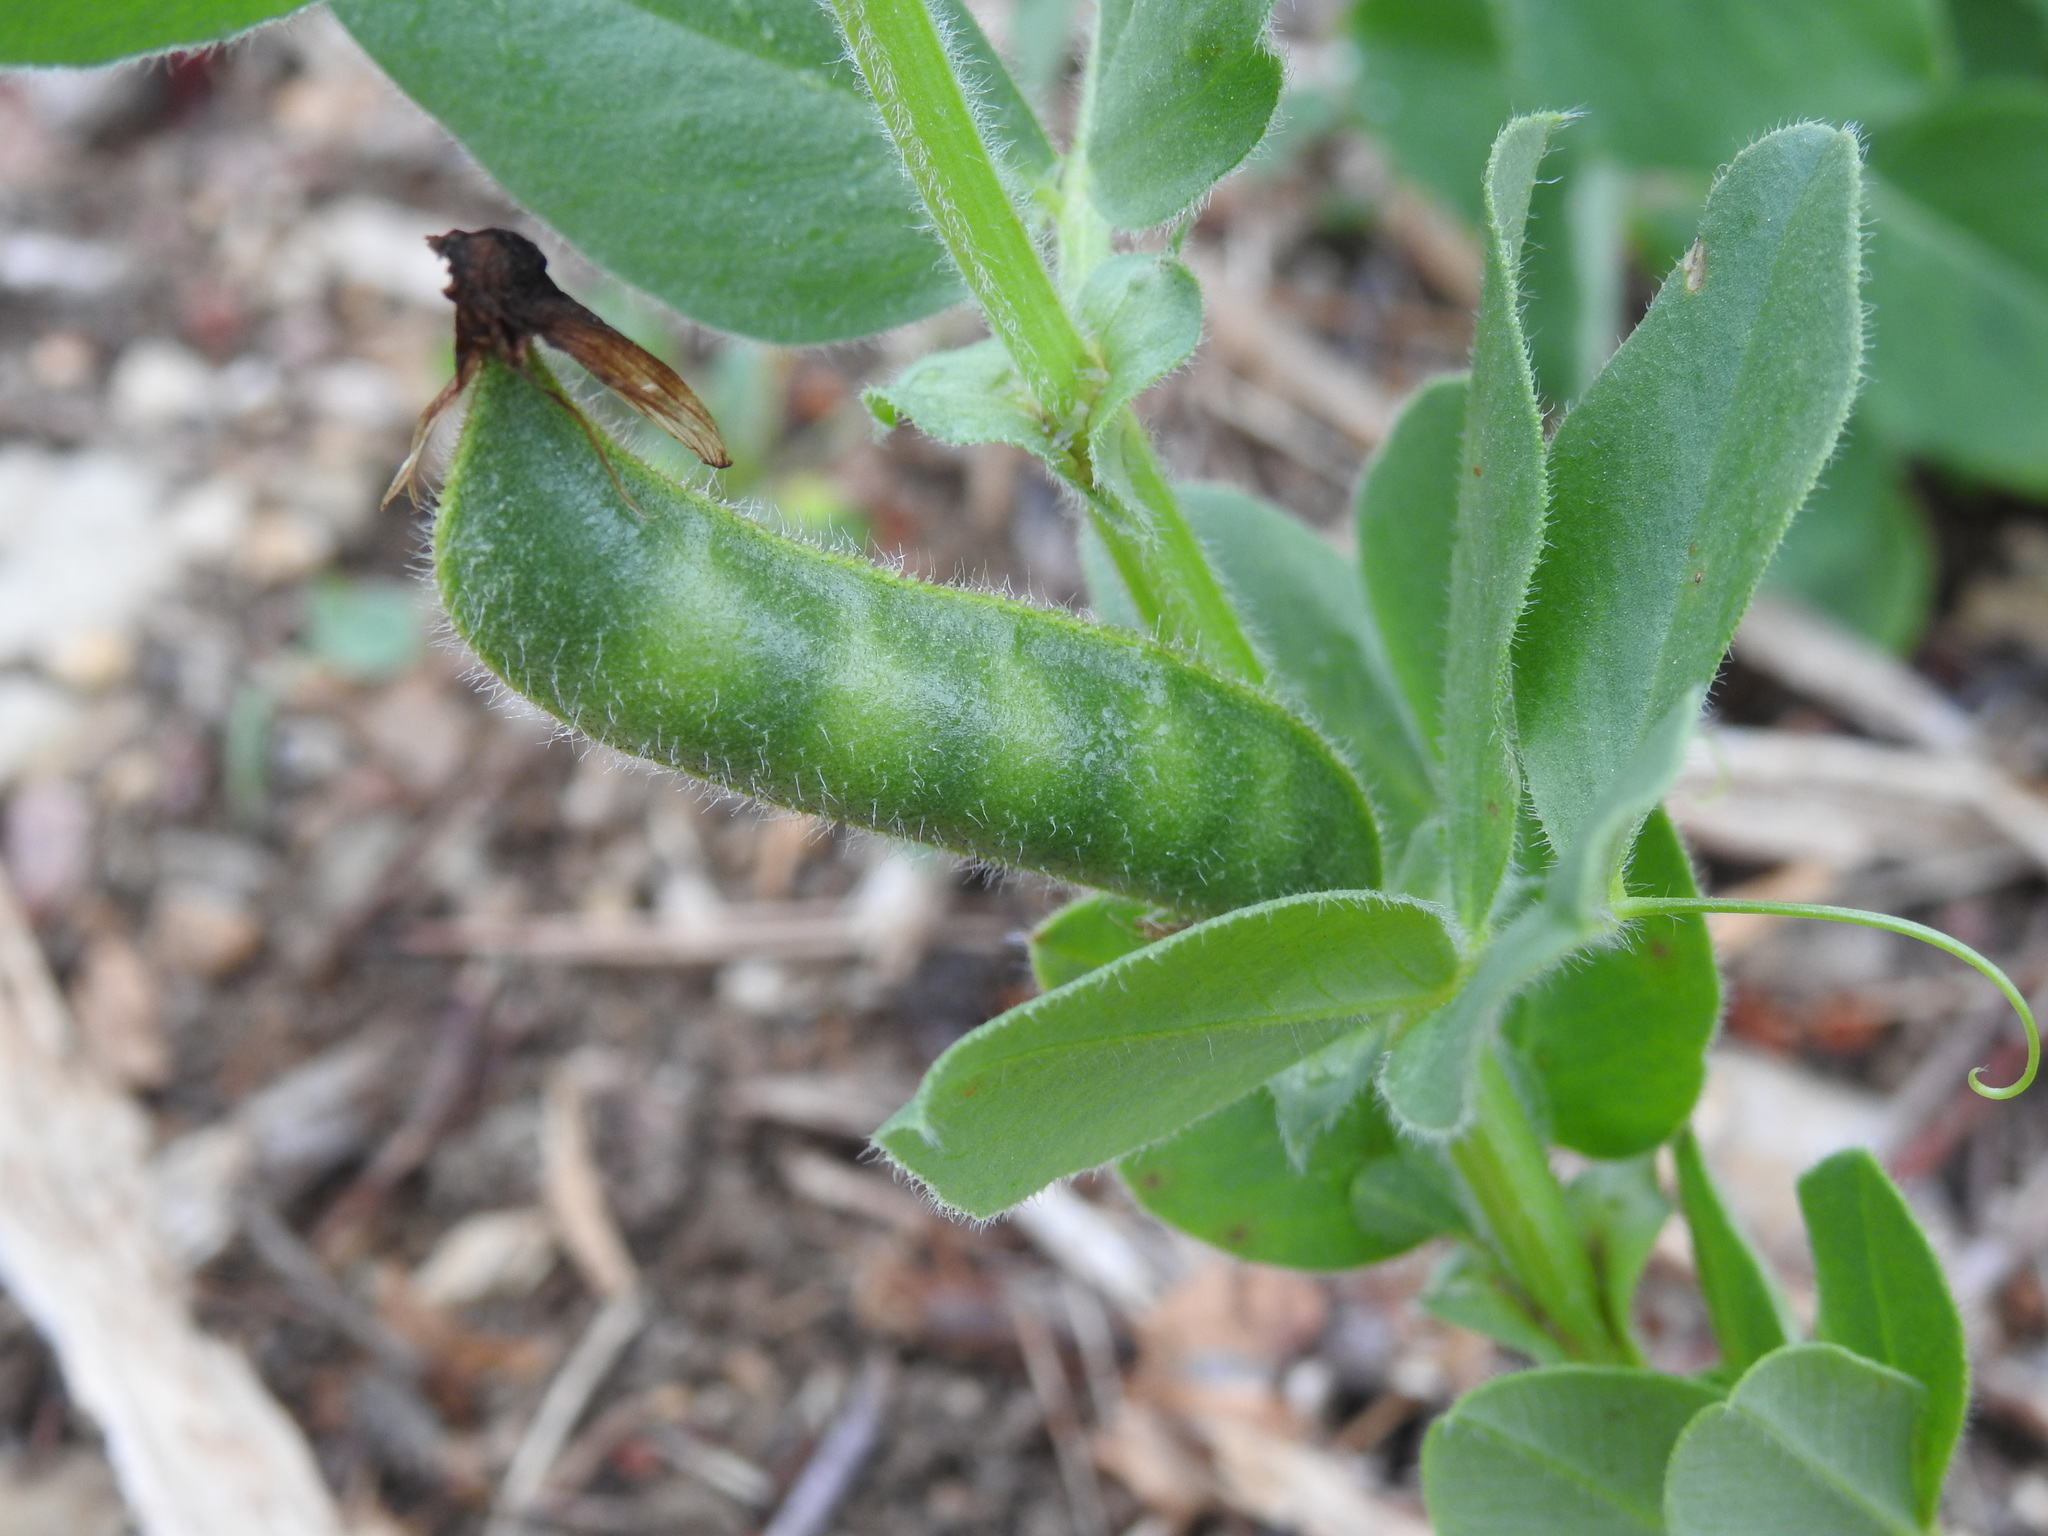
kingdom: Plantae
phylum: Tracheophyta
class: Magnoliopsida
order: Fabales
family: Fabaceae
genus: Vicia
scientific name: Vicia johannis
